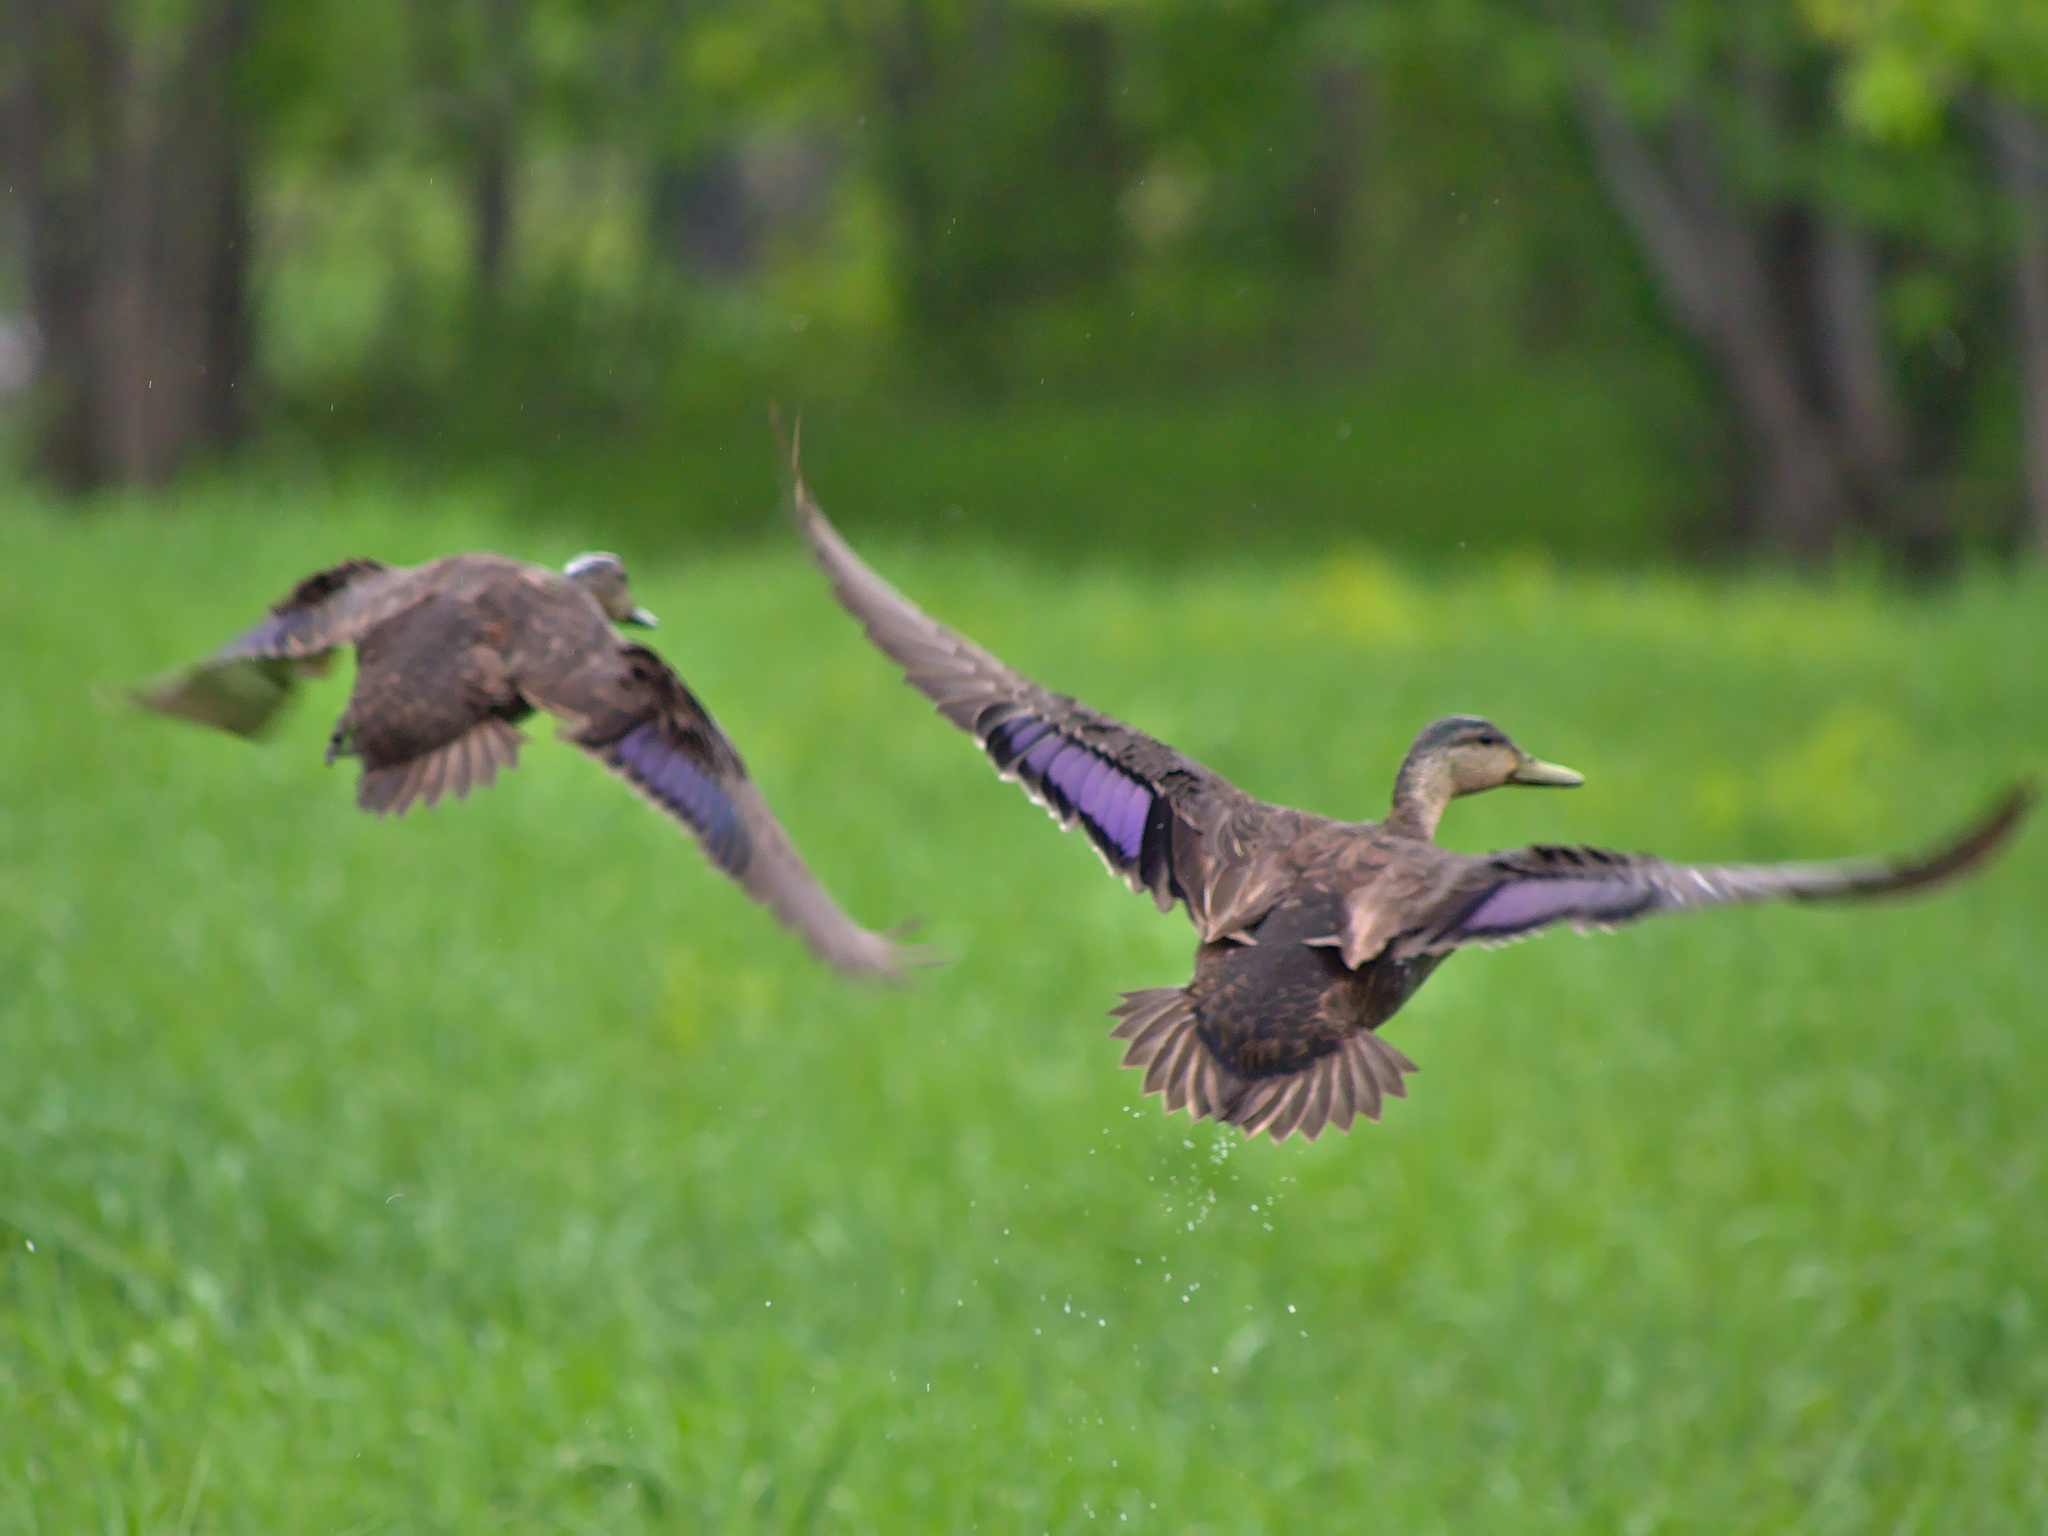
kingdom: Animalia
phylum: Chordata
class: Aves
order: Anseriformes
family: Anatidae
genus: Anas
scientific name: Anas rubripes
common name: American black duck
